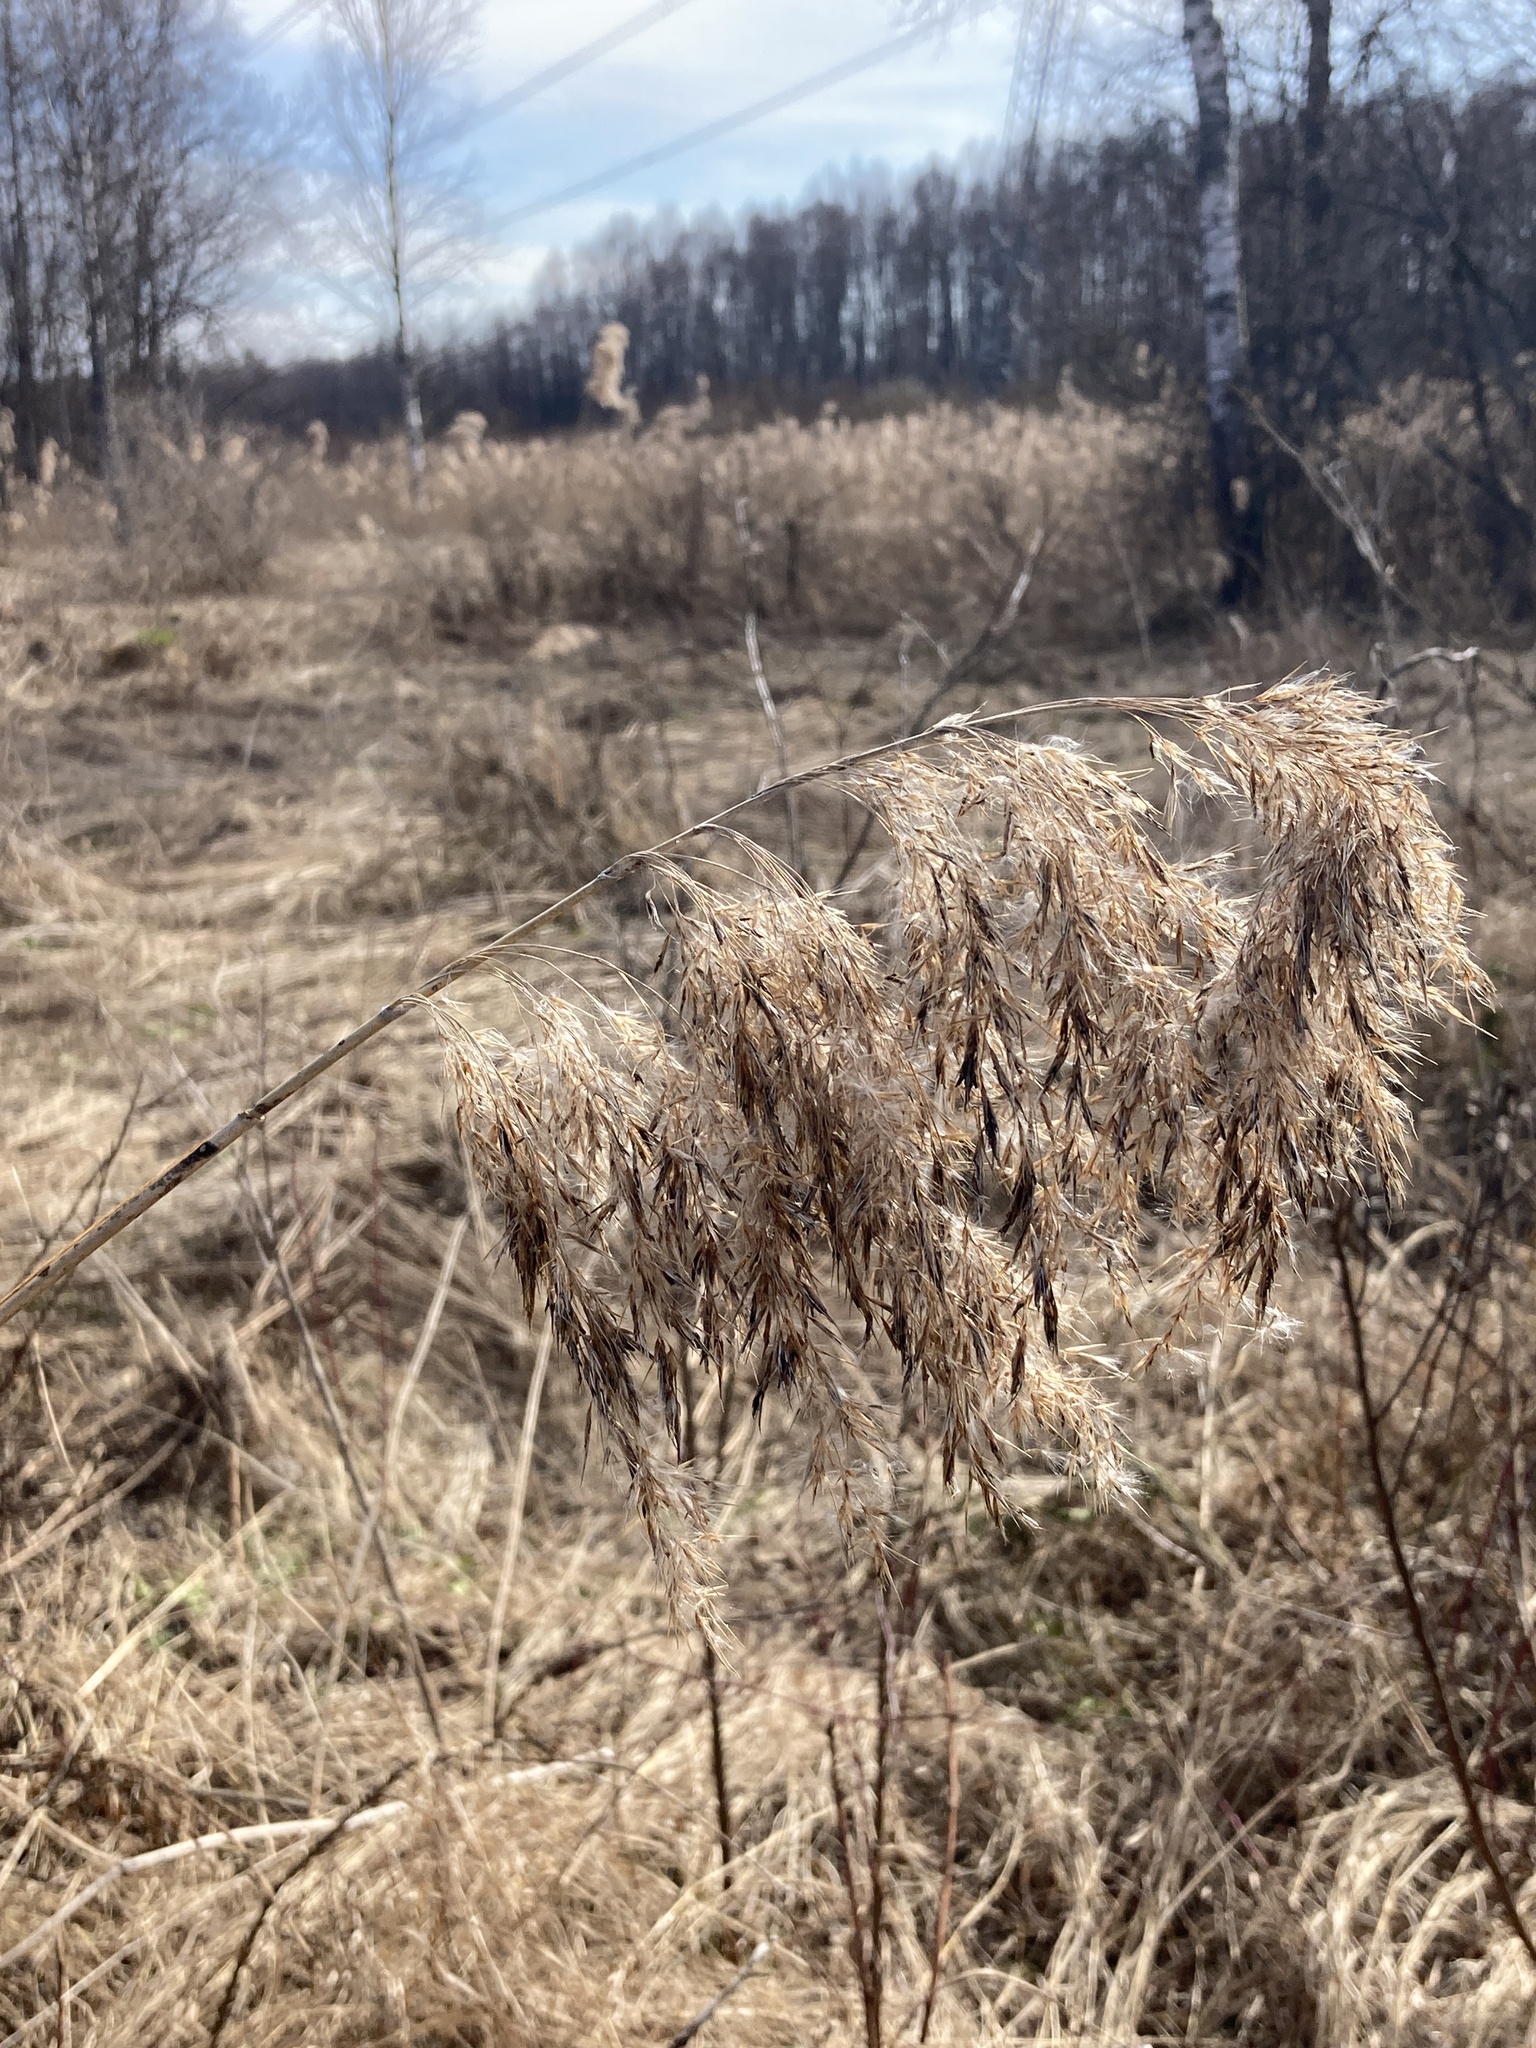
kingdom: Plantae
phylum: Tracheophyta
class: Liliopsida
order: Poales
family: Poaceae
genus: Phragmites
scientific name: Phragmites australis
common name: Common reed
